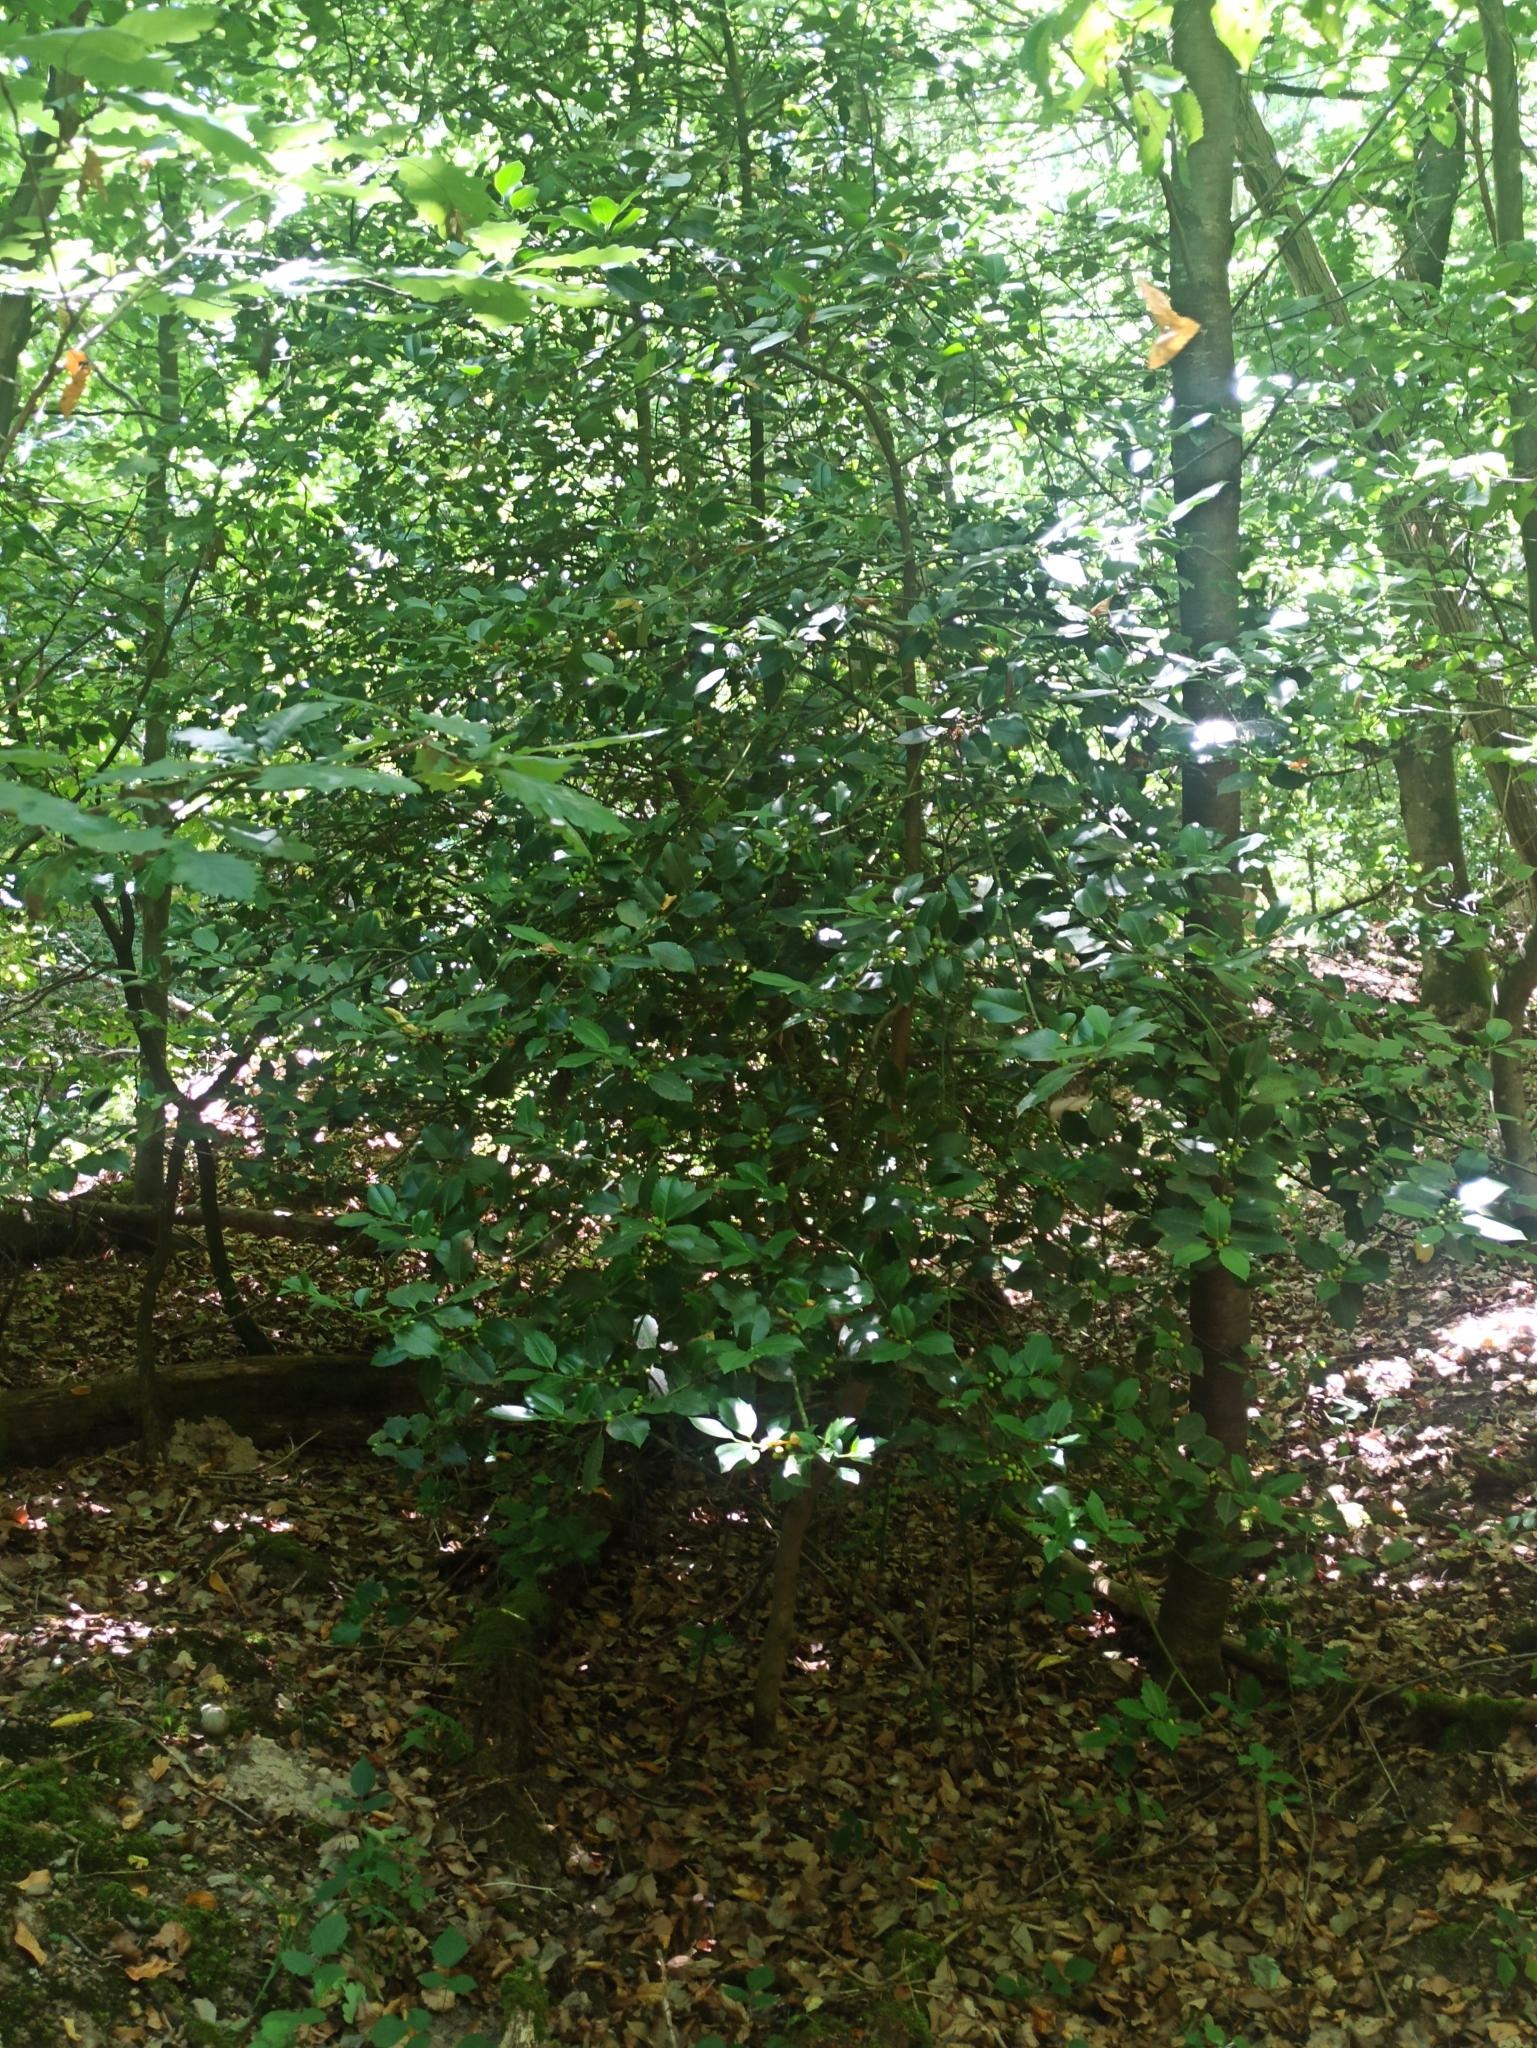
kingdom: Plantae
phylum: Tracheophyta
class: Magnoliopsida
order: Aquifoliales
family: Aquifoliaceae
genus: Ilex
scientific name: Ilex aquifolium
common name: English holly
